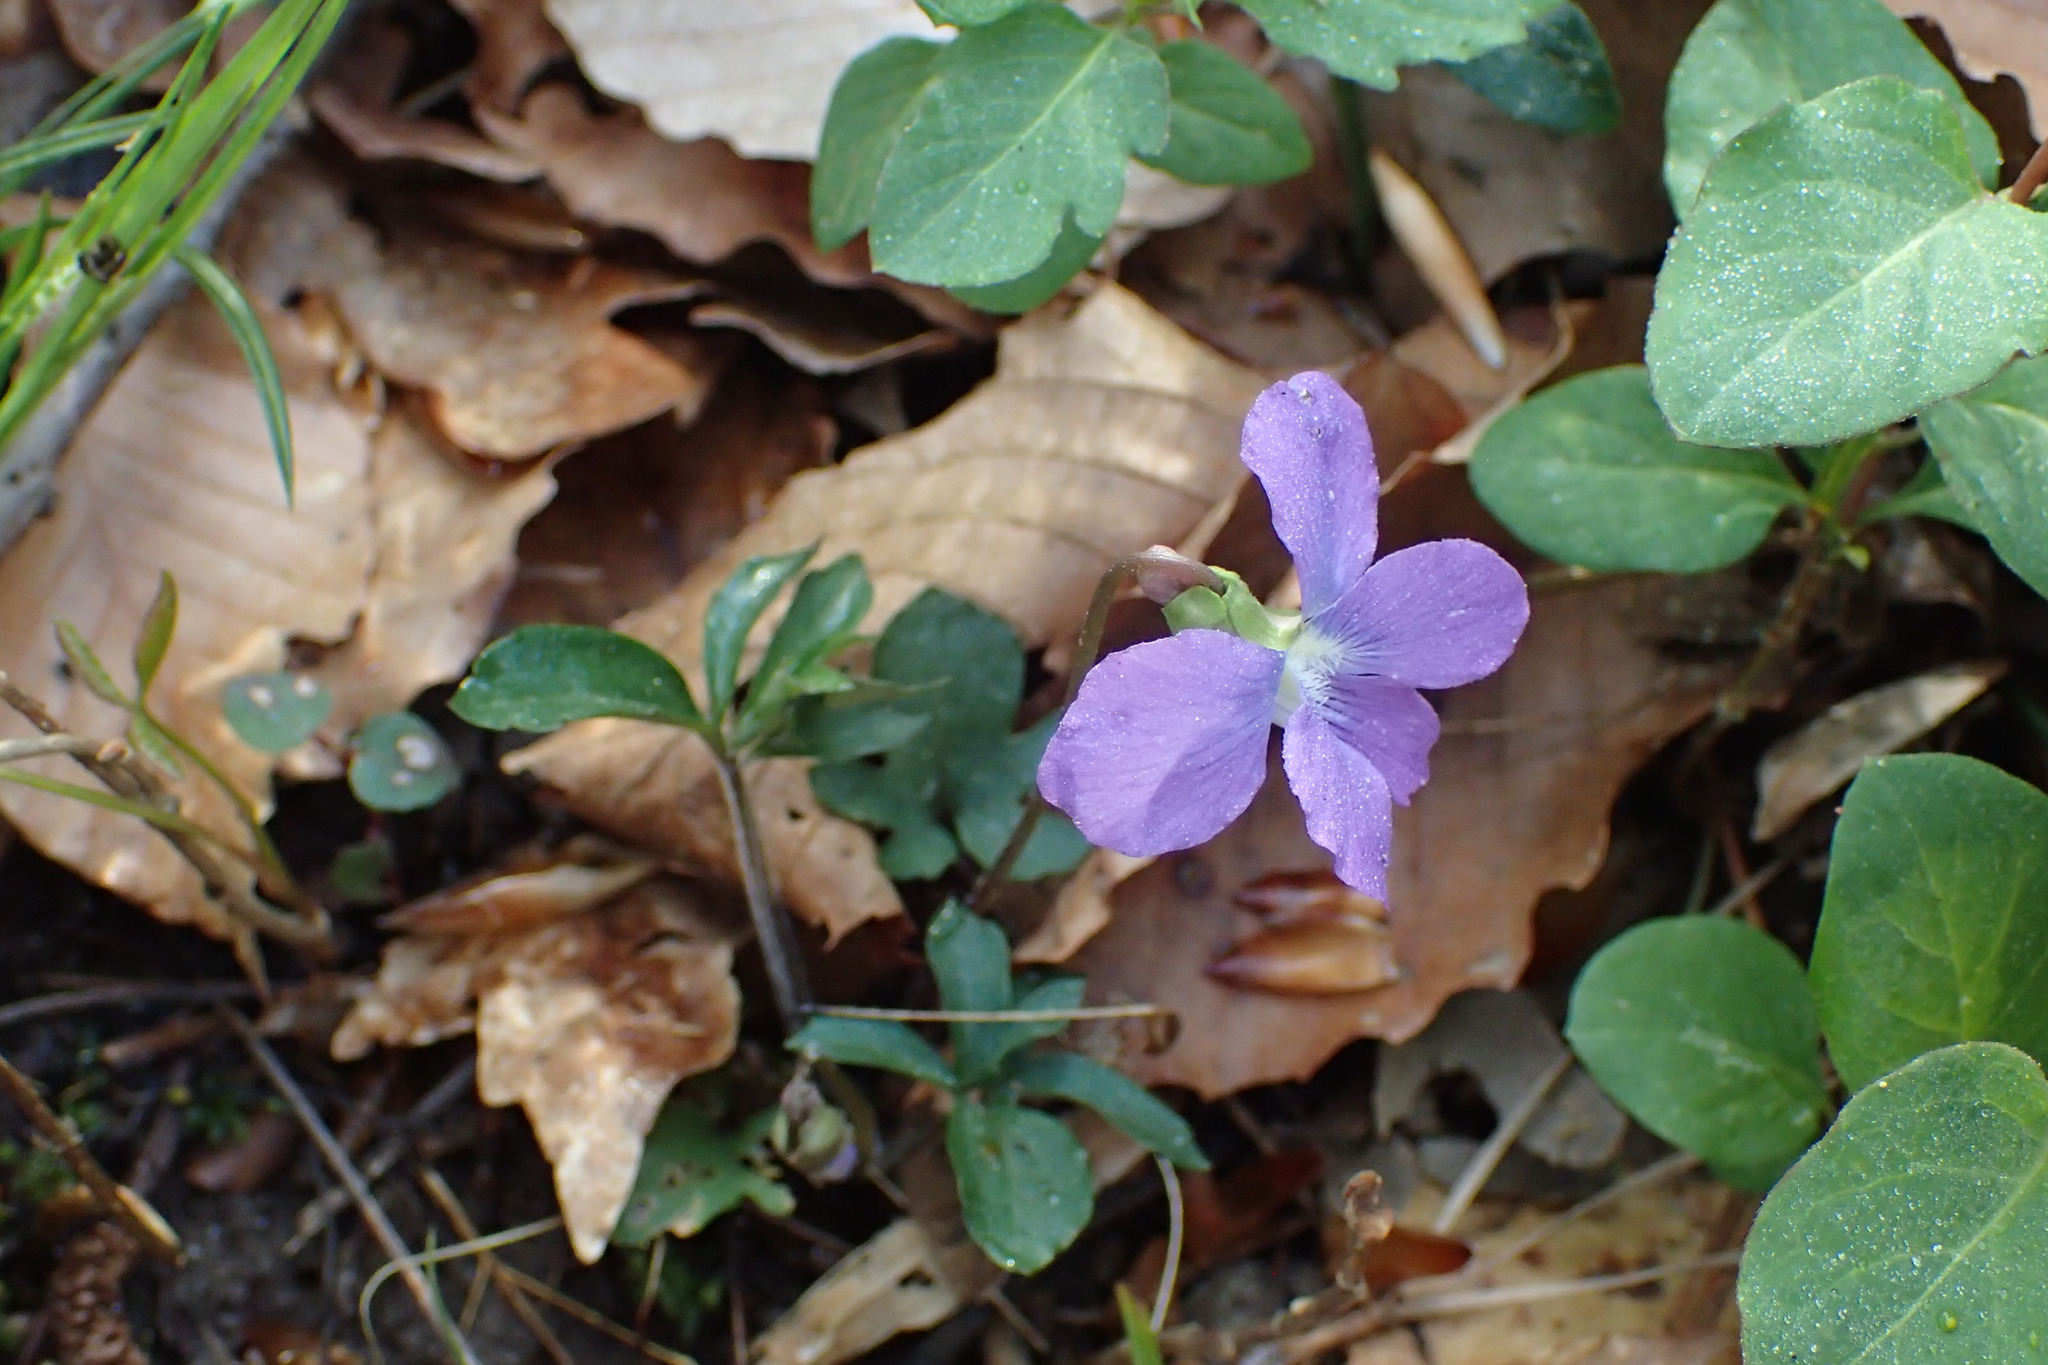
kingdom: Plantae
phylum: Tracheophyta
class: Magnoliopsida
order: Malpighiales
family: Violaceae
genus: Viola
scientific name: Viola palmata
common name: Early blue violet
